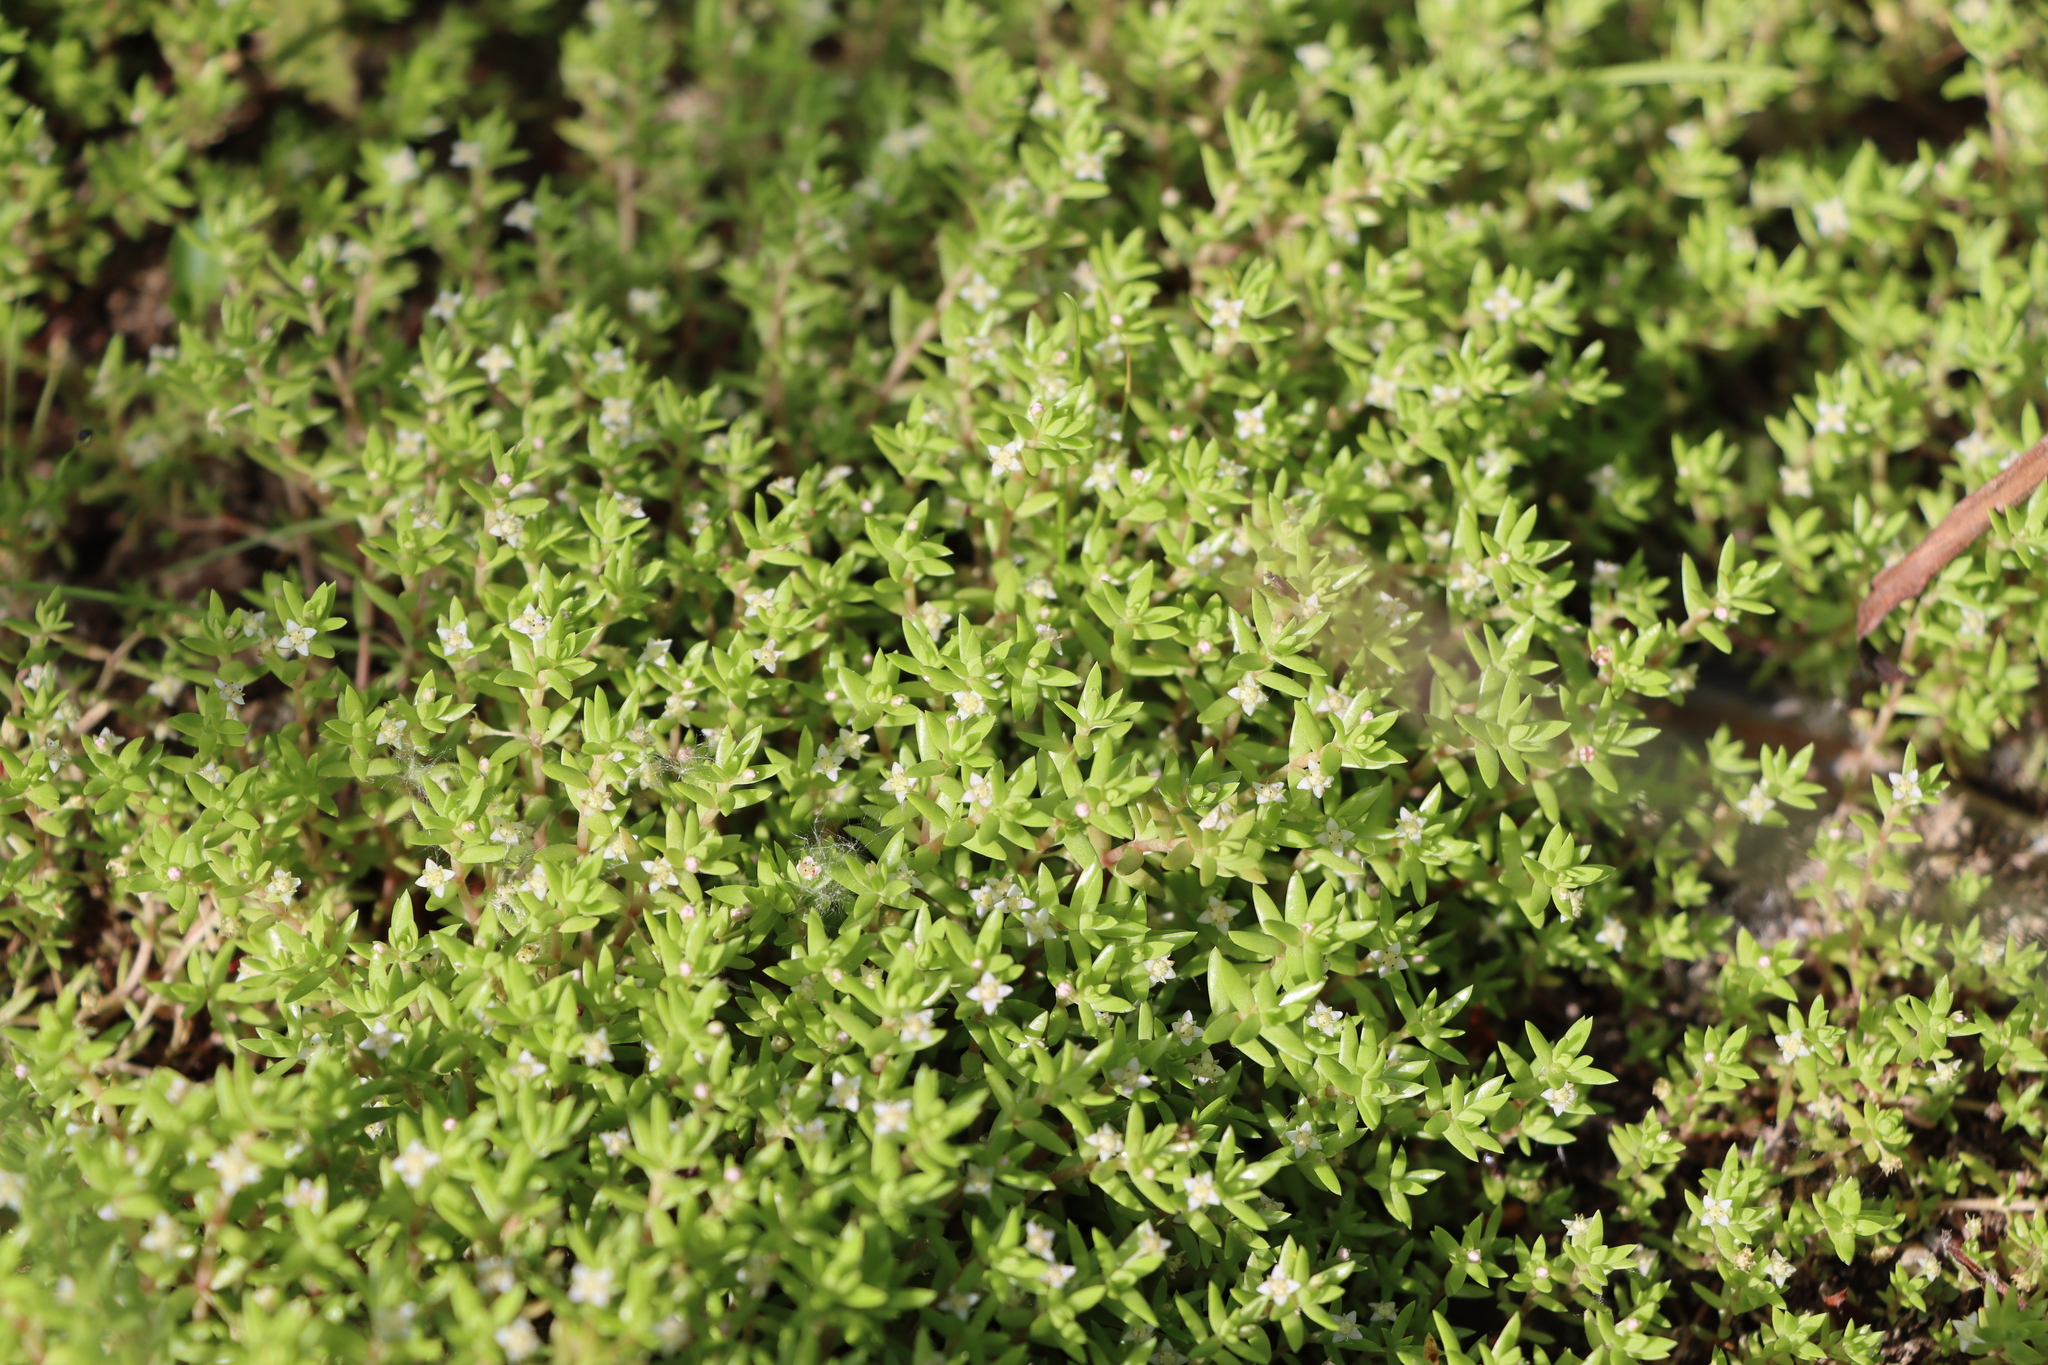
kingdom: Plantae
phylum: Tracheophyta
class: Magnoliopsida
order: Saxifragales
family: Crassulaceae
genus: Crassula
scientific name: Crassula helmsii
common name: New zealand pigmyweed
